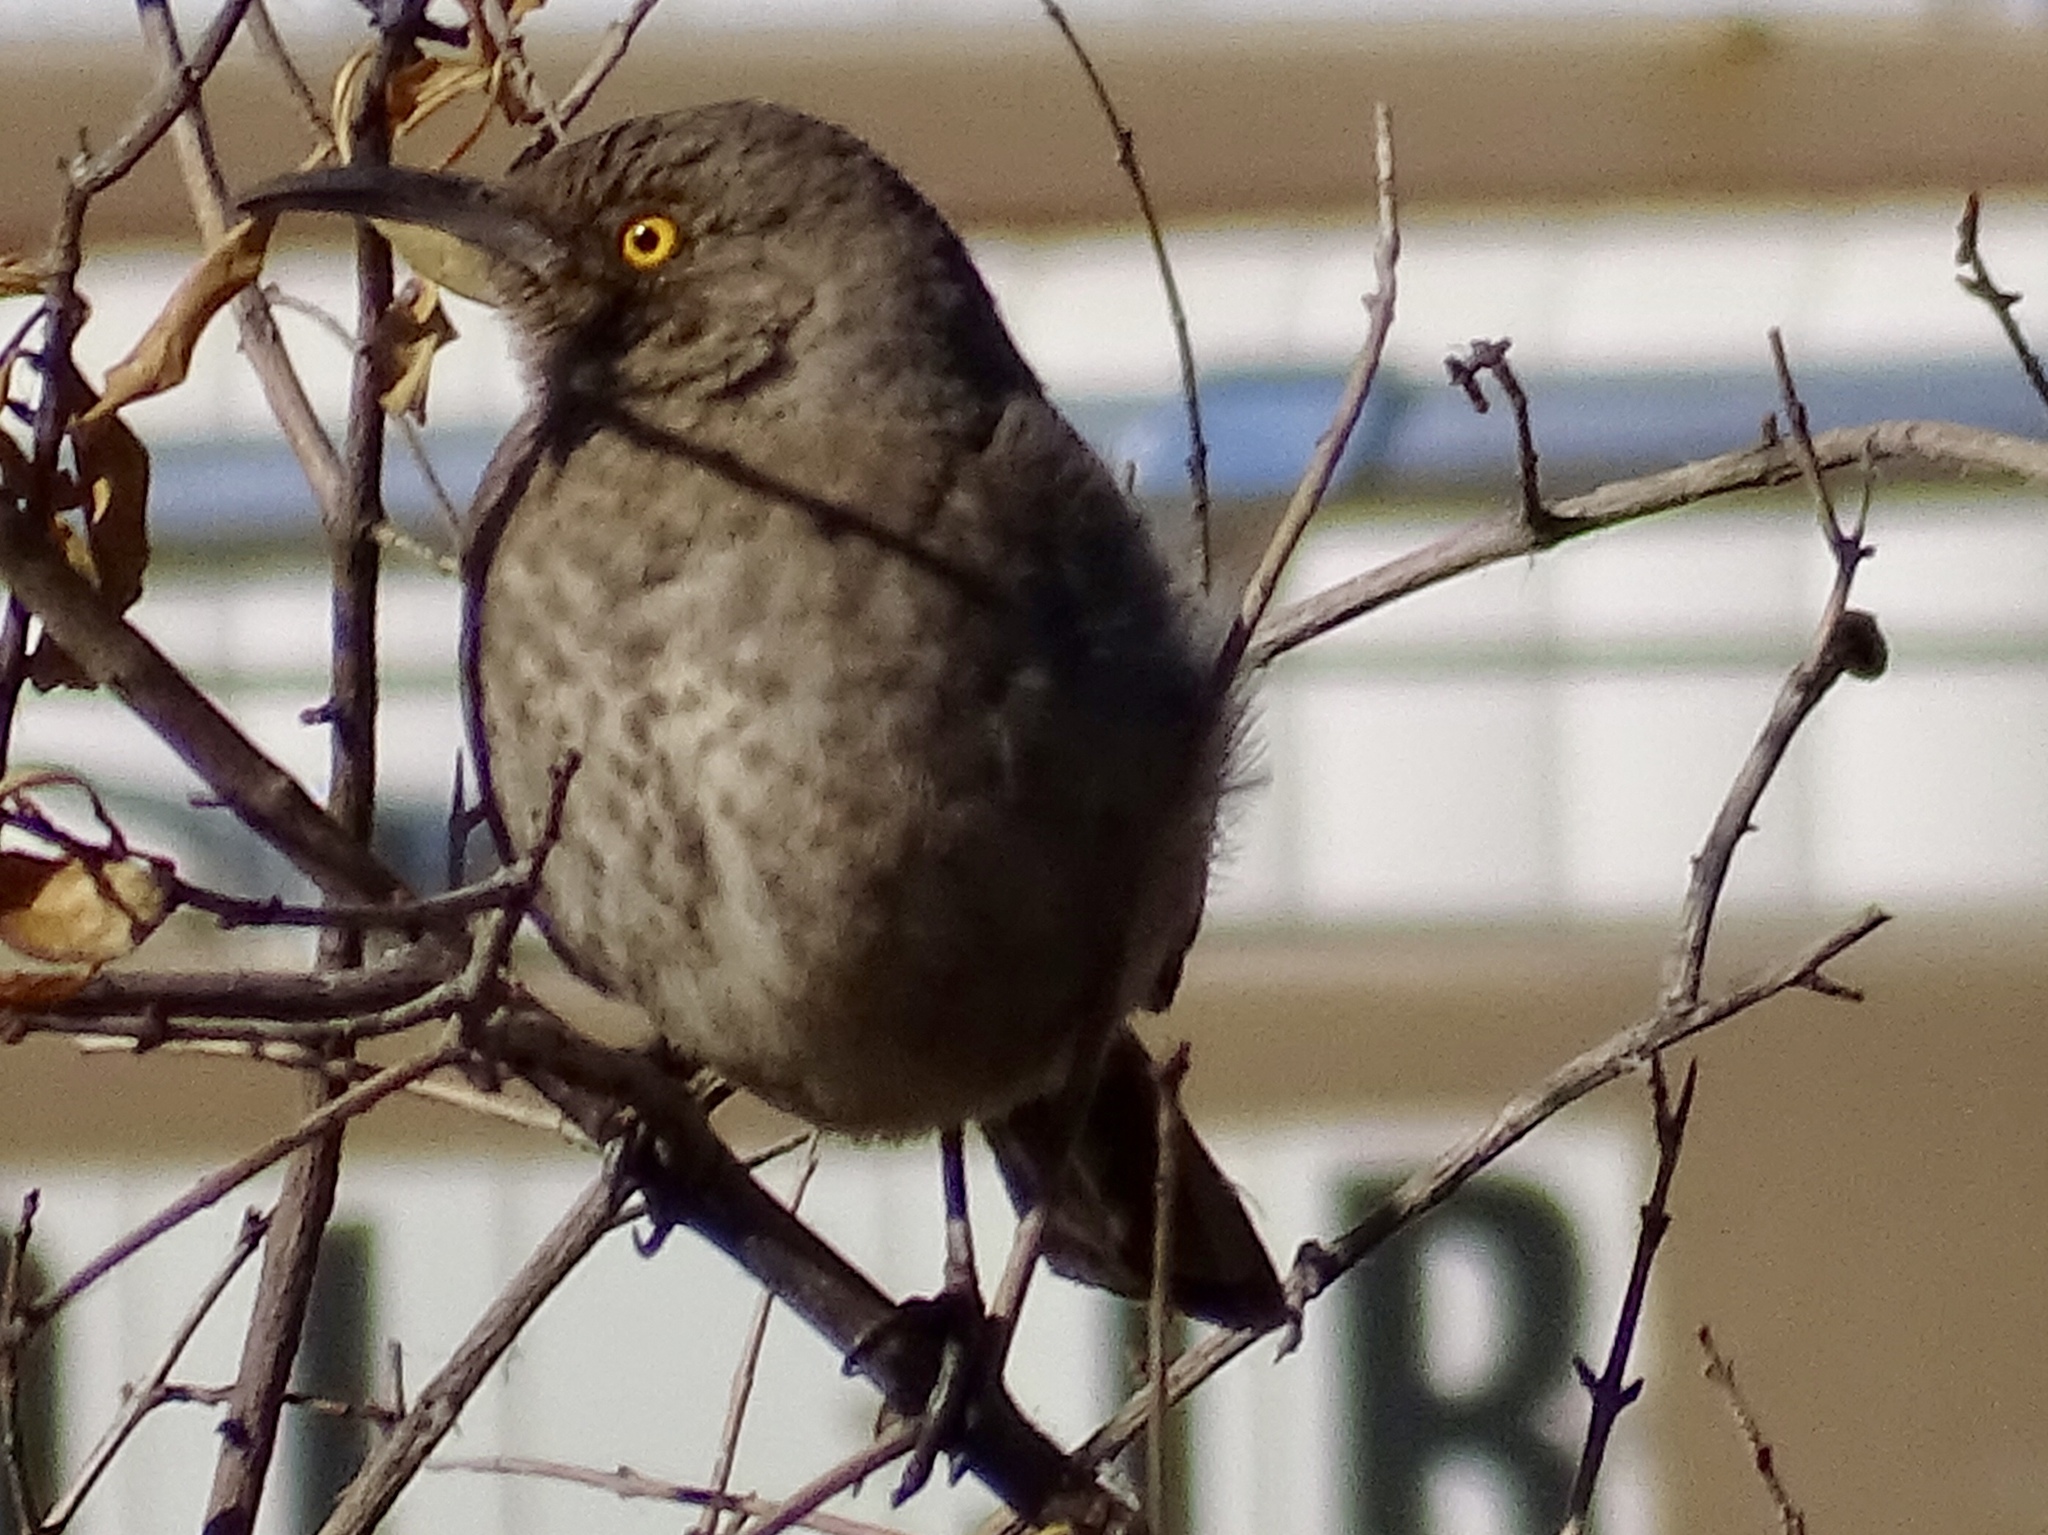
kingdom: Animalia
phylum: Chordata
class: Aves
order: Passeriformes
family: Mimidae
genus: Toxostoma
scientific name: Toxostoma curvirostre
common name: Curve-billed thrasher
